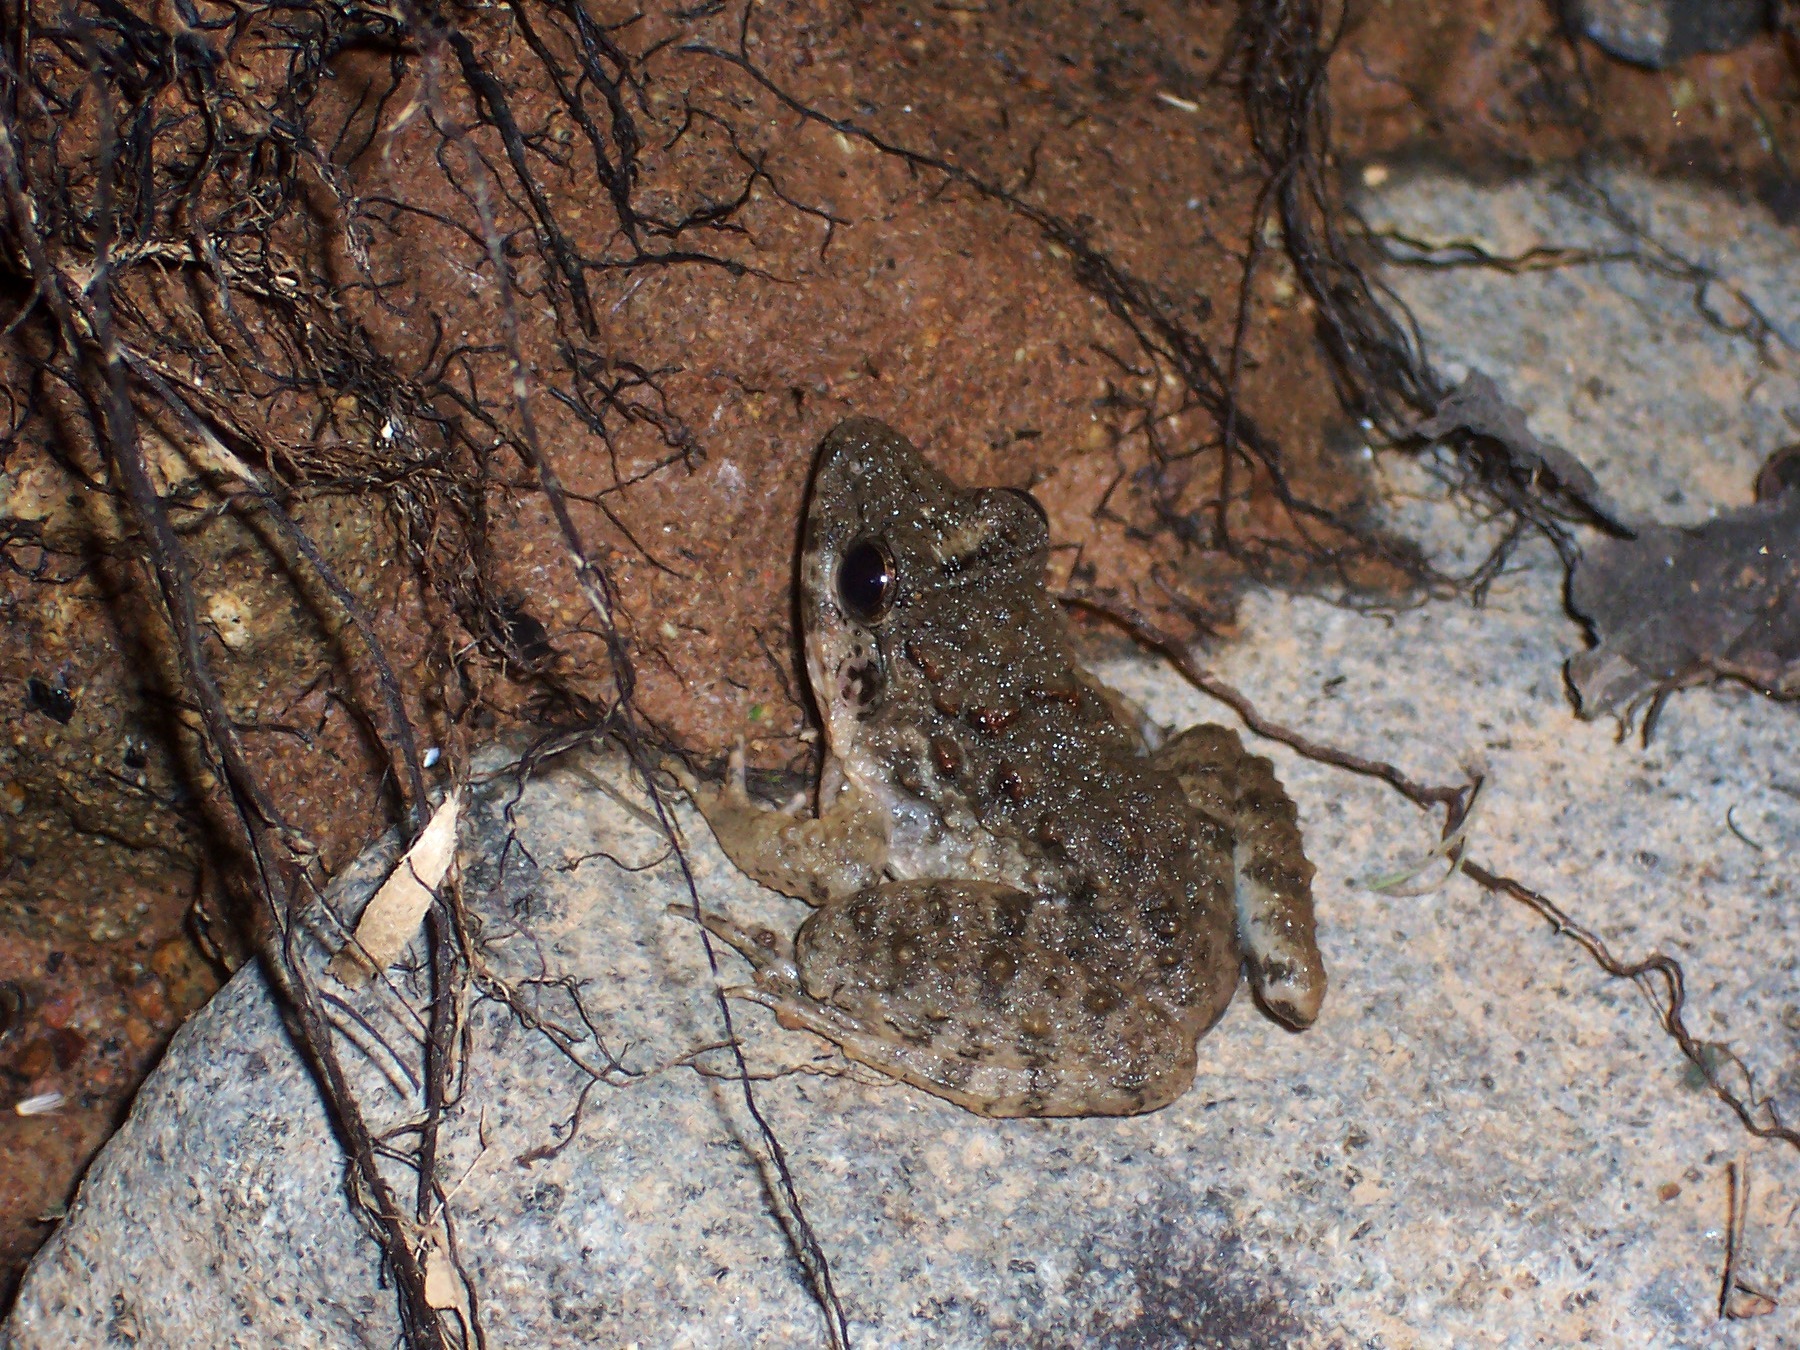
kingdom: Animalia
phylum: Chordata
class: Amphibia
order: Anura
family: Dicroglossidae
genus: Fejervarya
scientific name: Fejervarya limnocharis
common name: Asian grass frog/common pond frog/field frog/grass frog/indian rice frog
